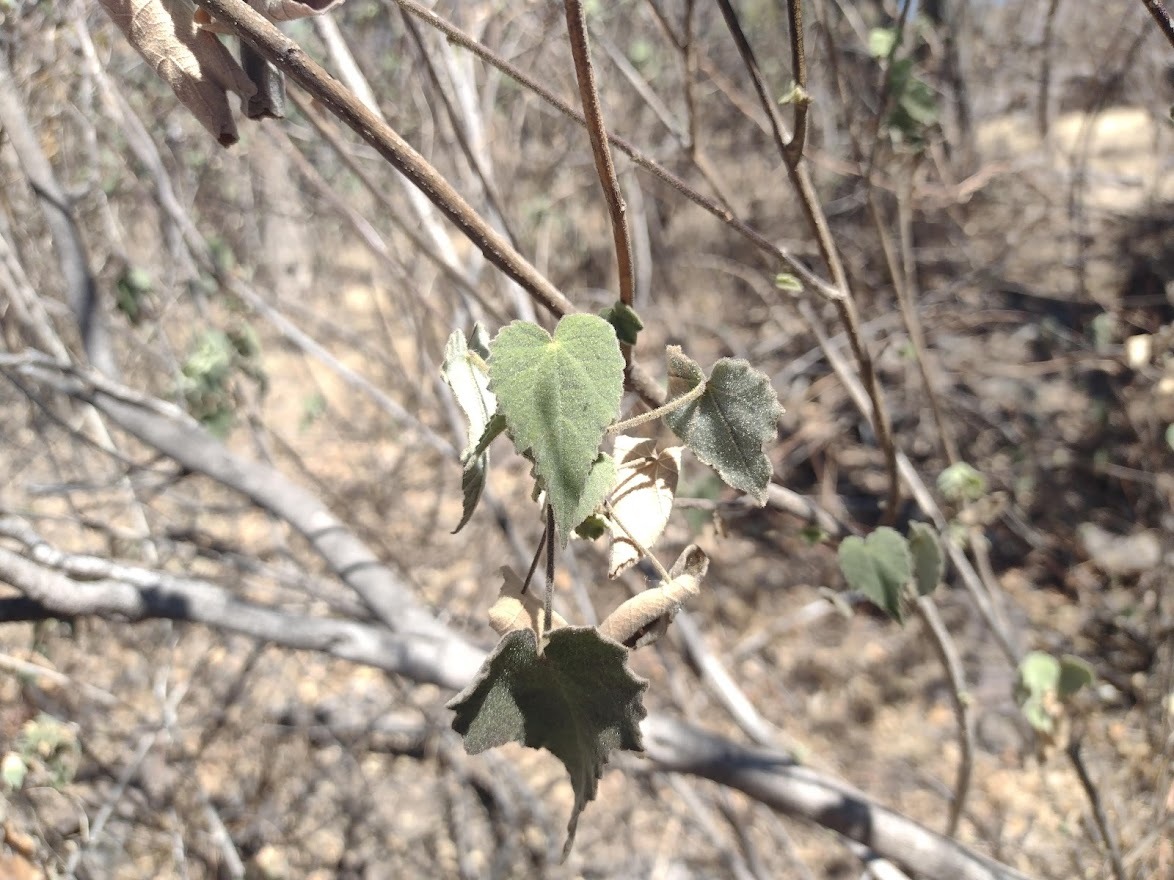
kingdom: Plantae
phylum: Tracheophyta
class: Magnoliopsida
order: Malvales
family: Malvaceae
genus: Abutilon
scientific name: Abutilon viscosum
